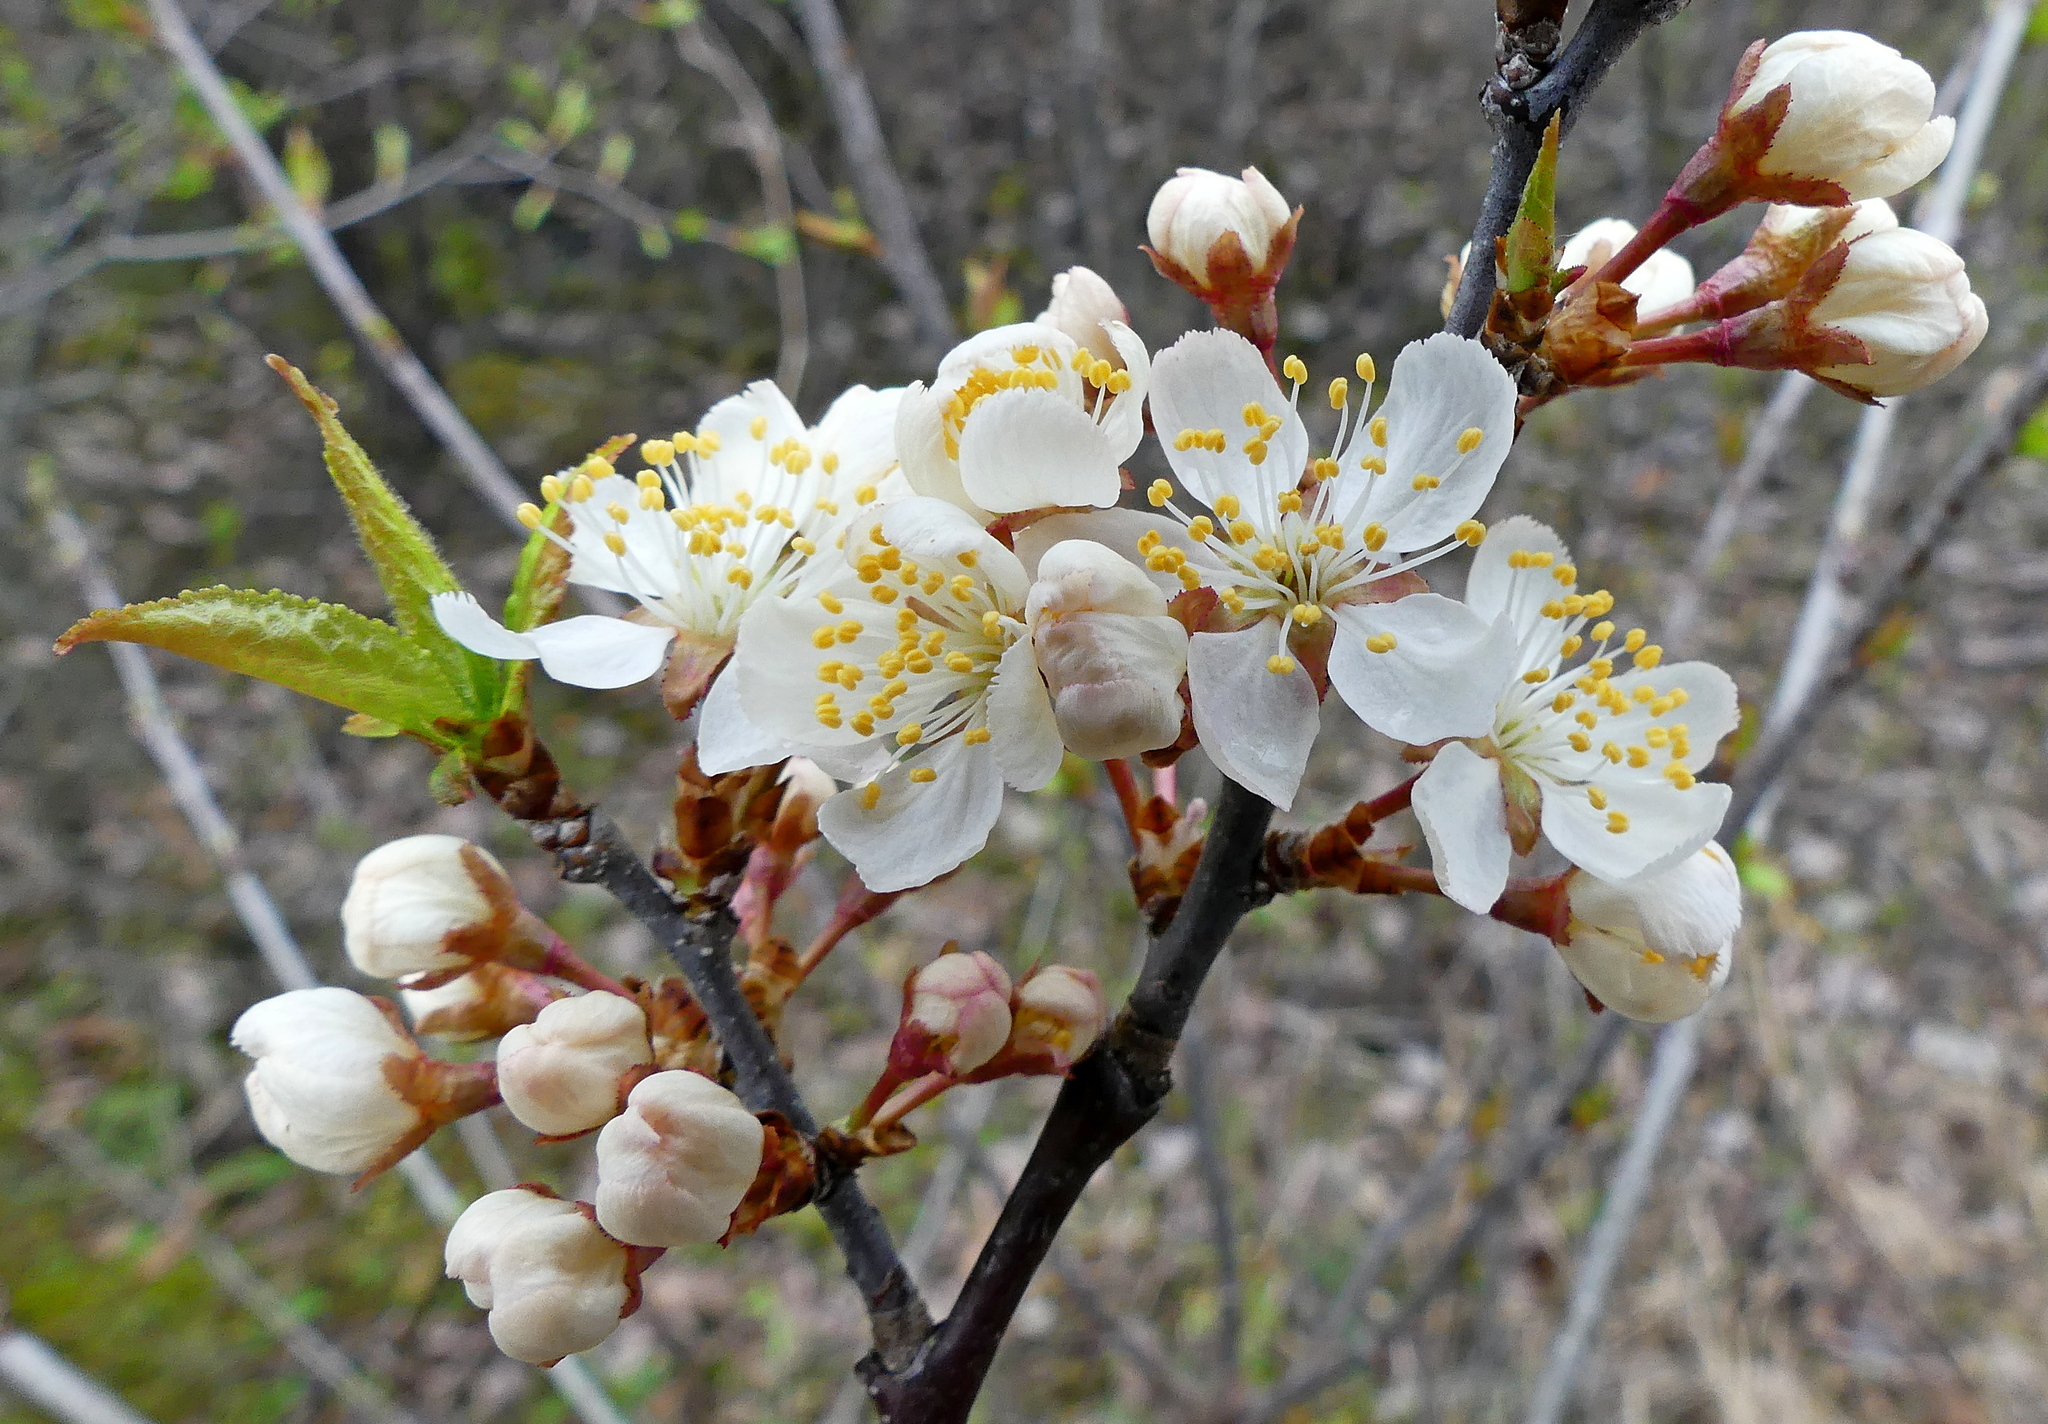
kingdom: Plantae
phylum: Tracheophyta
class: Magnoliopsida
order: Rosales
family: Rosaceae
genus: Prunus
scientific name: Prunus nigra
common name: Black plum
